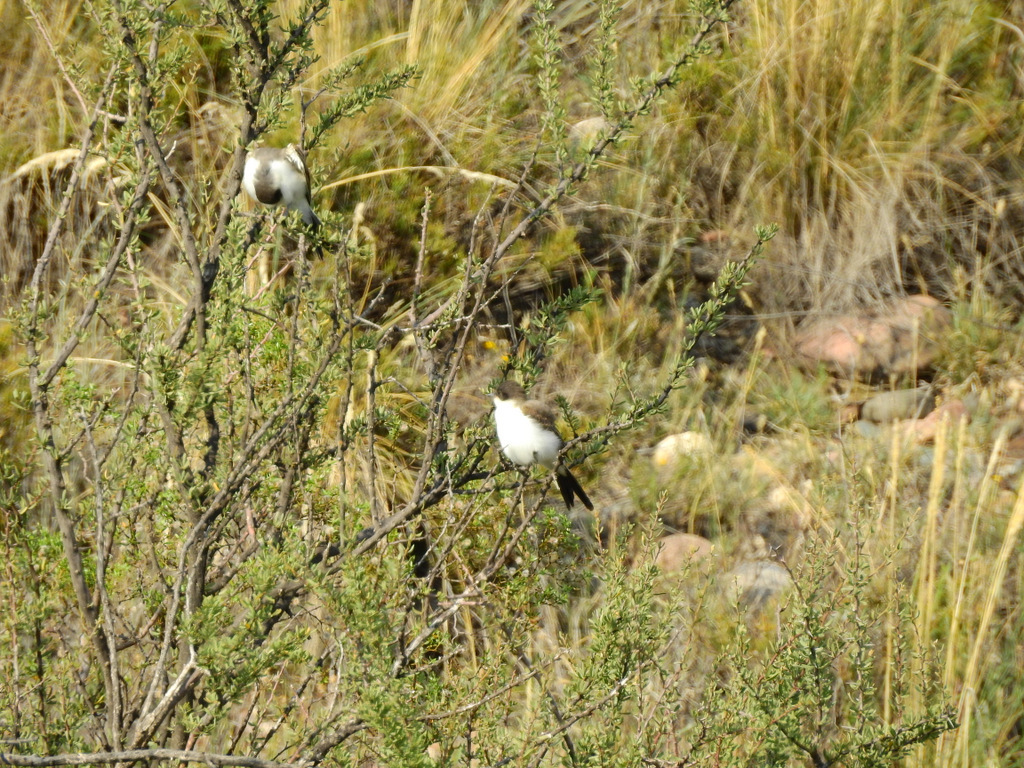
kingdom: Animalia
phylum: Chordata
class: Aves
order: Passeriformes
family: Tyrannidae
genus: Tyrannus
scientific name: Tyrannus savana
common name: Fork-tailed flycatcher
